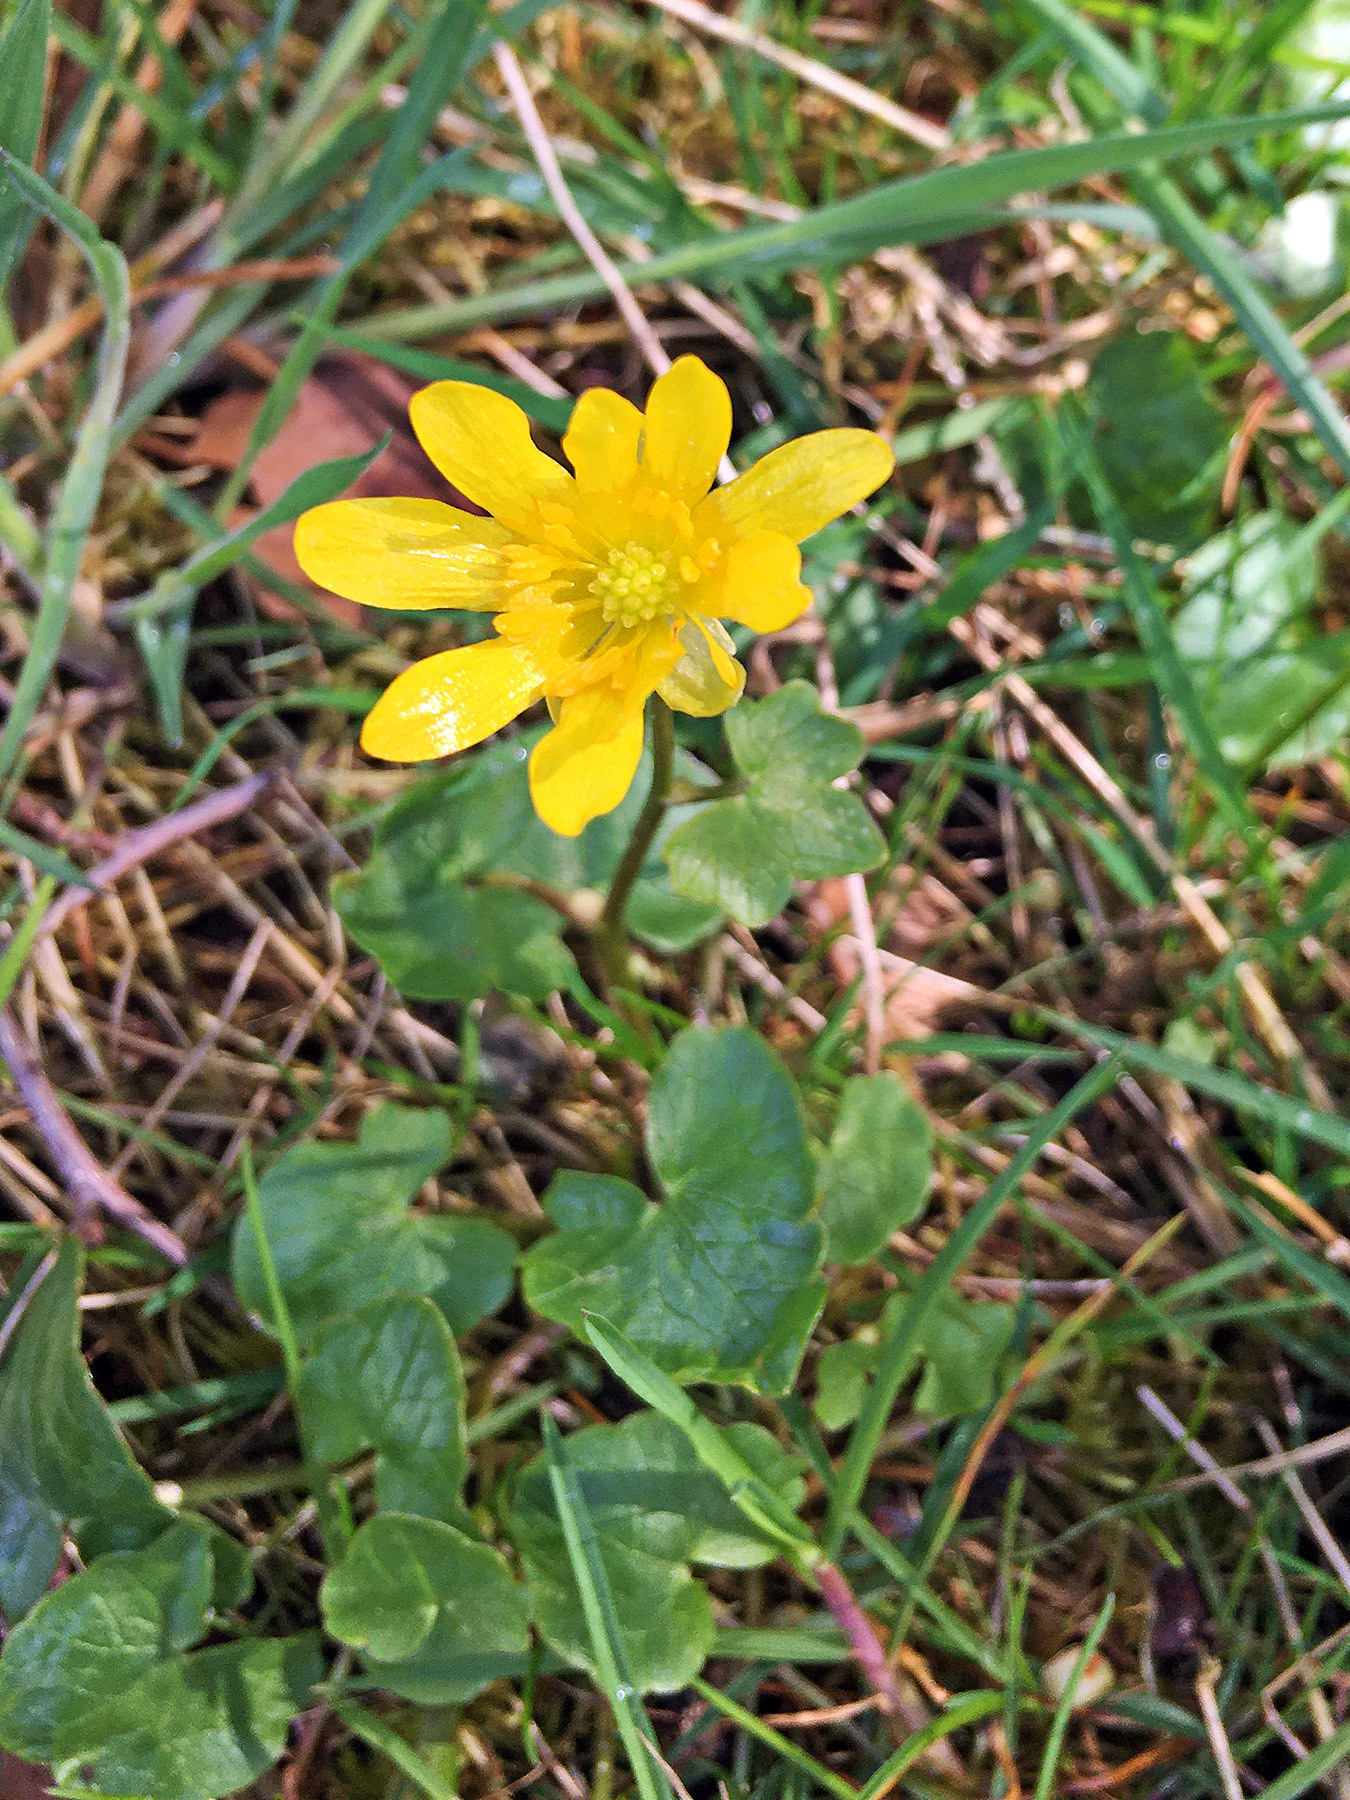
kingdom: Plantae
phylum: Tracheophyta
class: Magnoliopsida
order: Ranunculales
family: Ranunculaceae
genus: Ficaria
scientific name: Ficaria verna
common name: Lesser celandine
